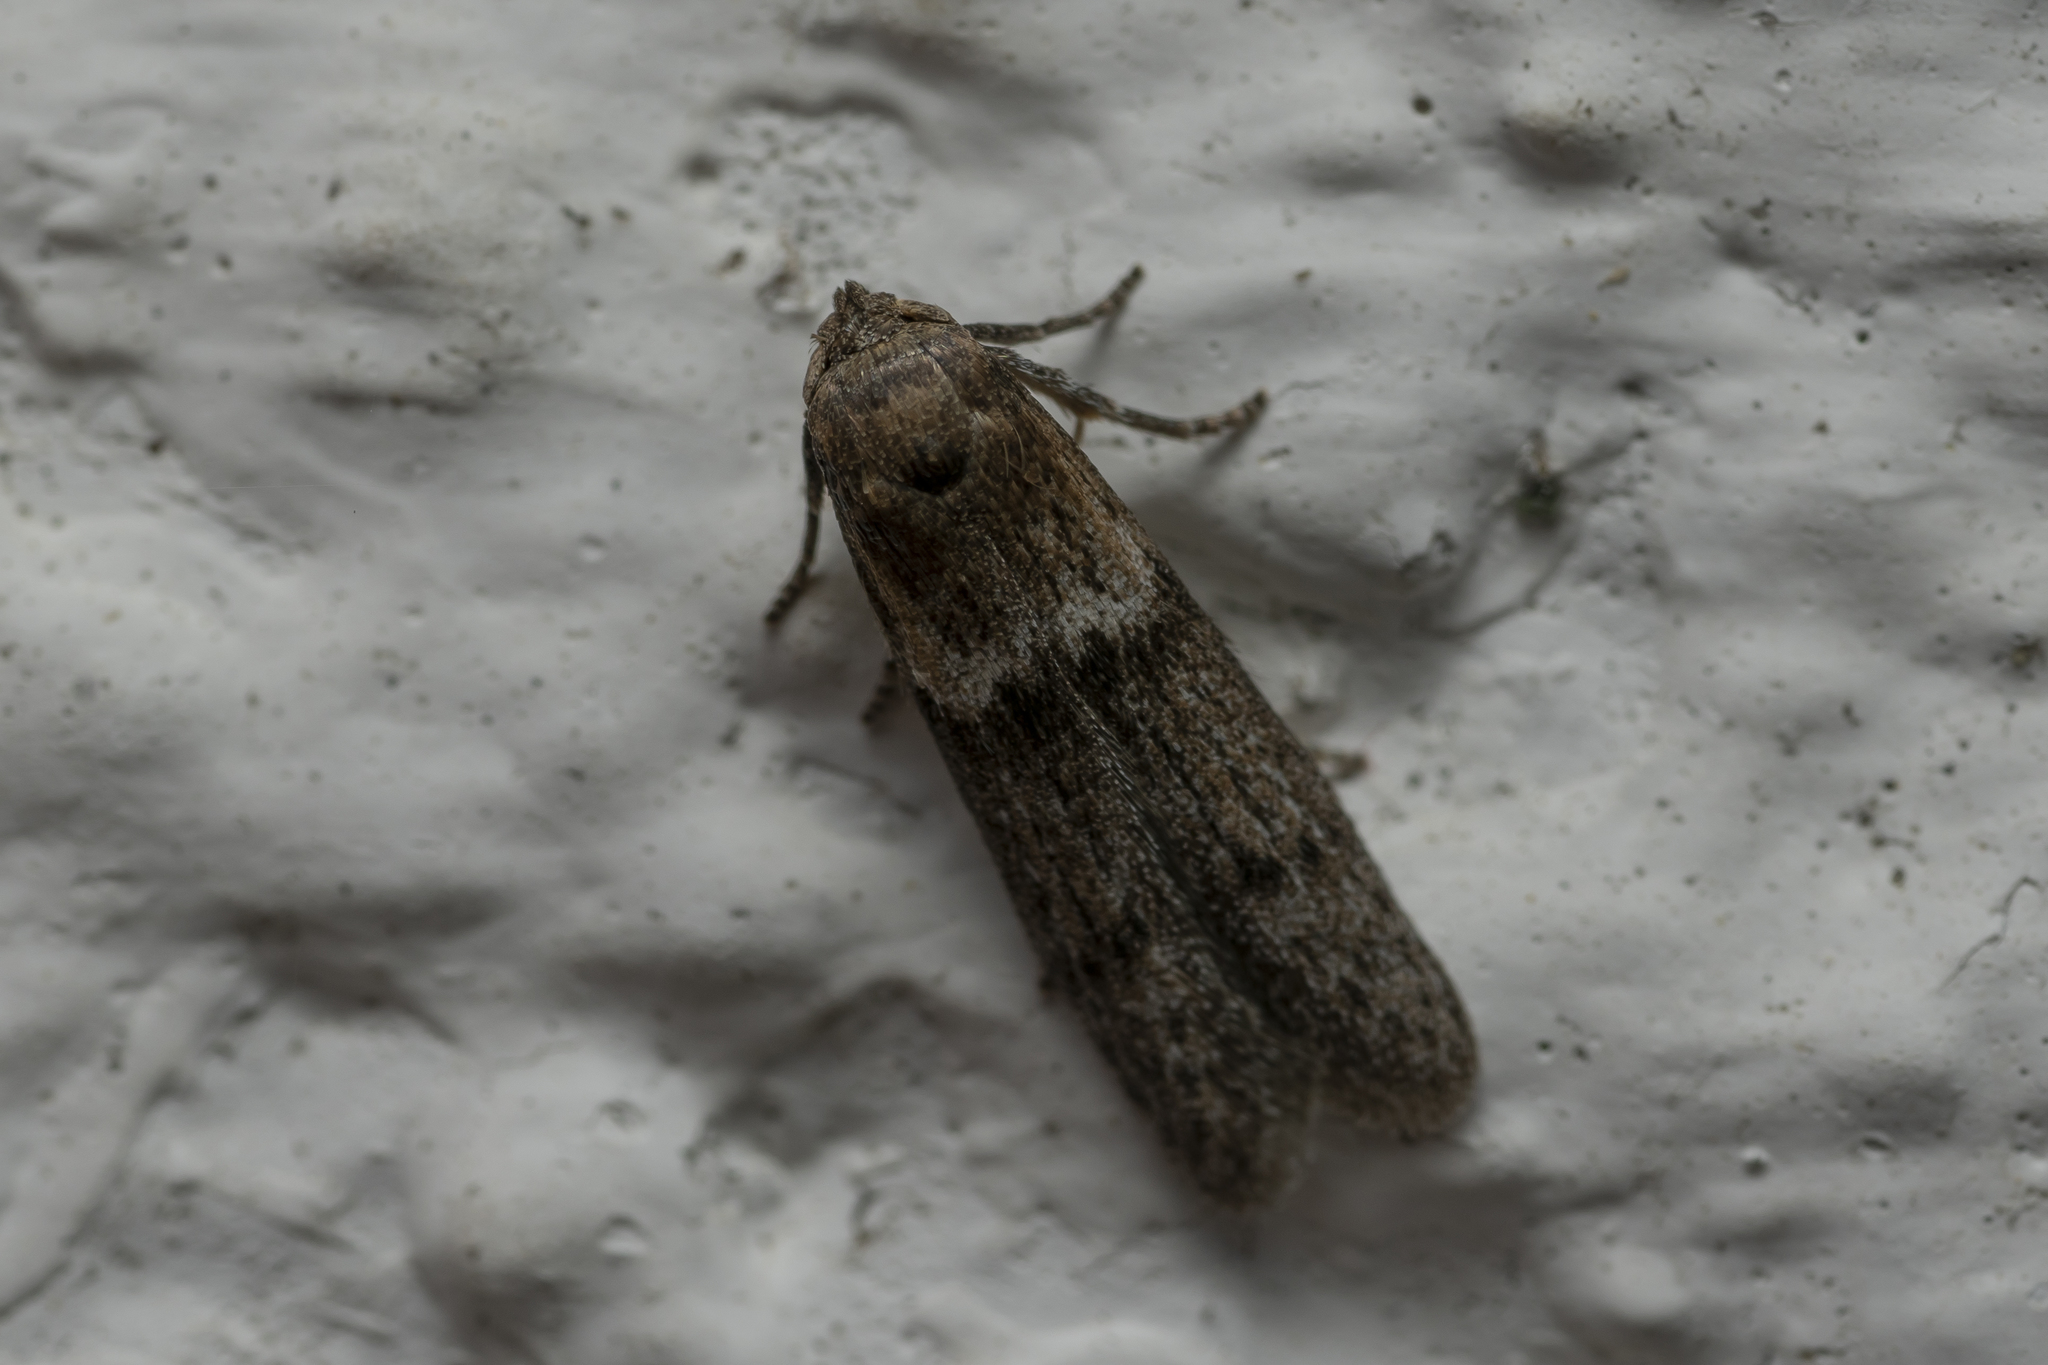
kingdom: Animalia
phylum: Arthropoda
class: Insecta
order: Lepidoptera
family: Blastobasidae
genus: Blastobasis
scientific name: Blastobasis phycidella
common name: Hampshire dowd
